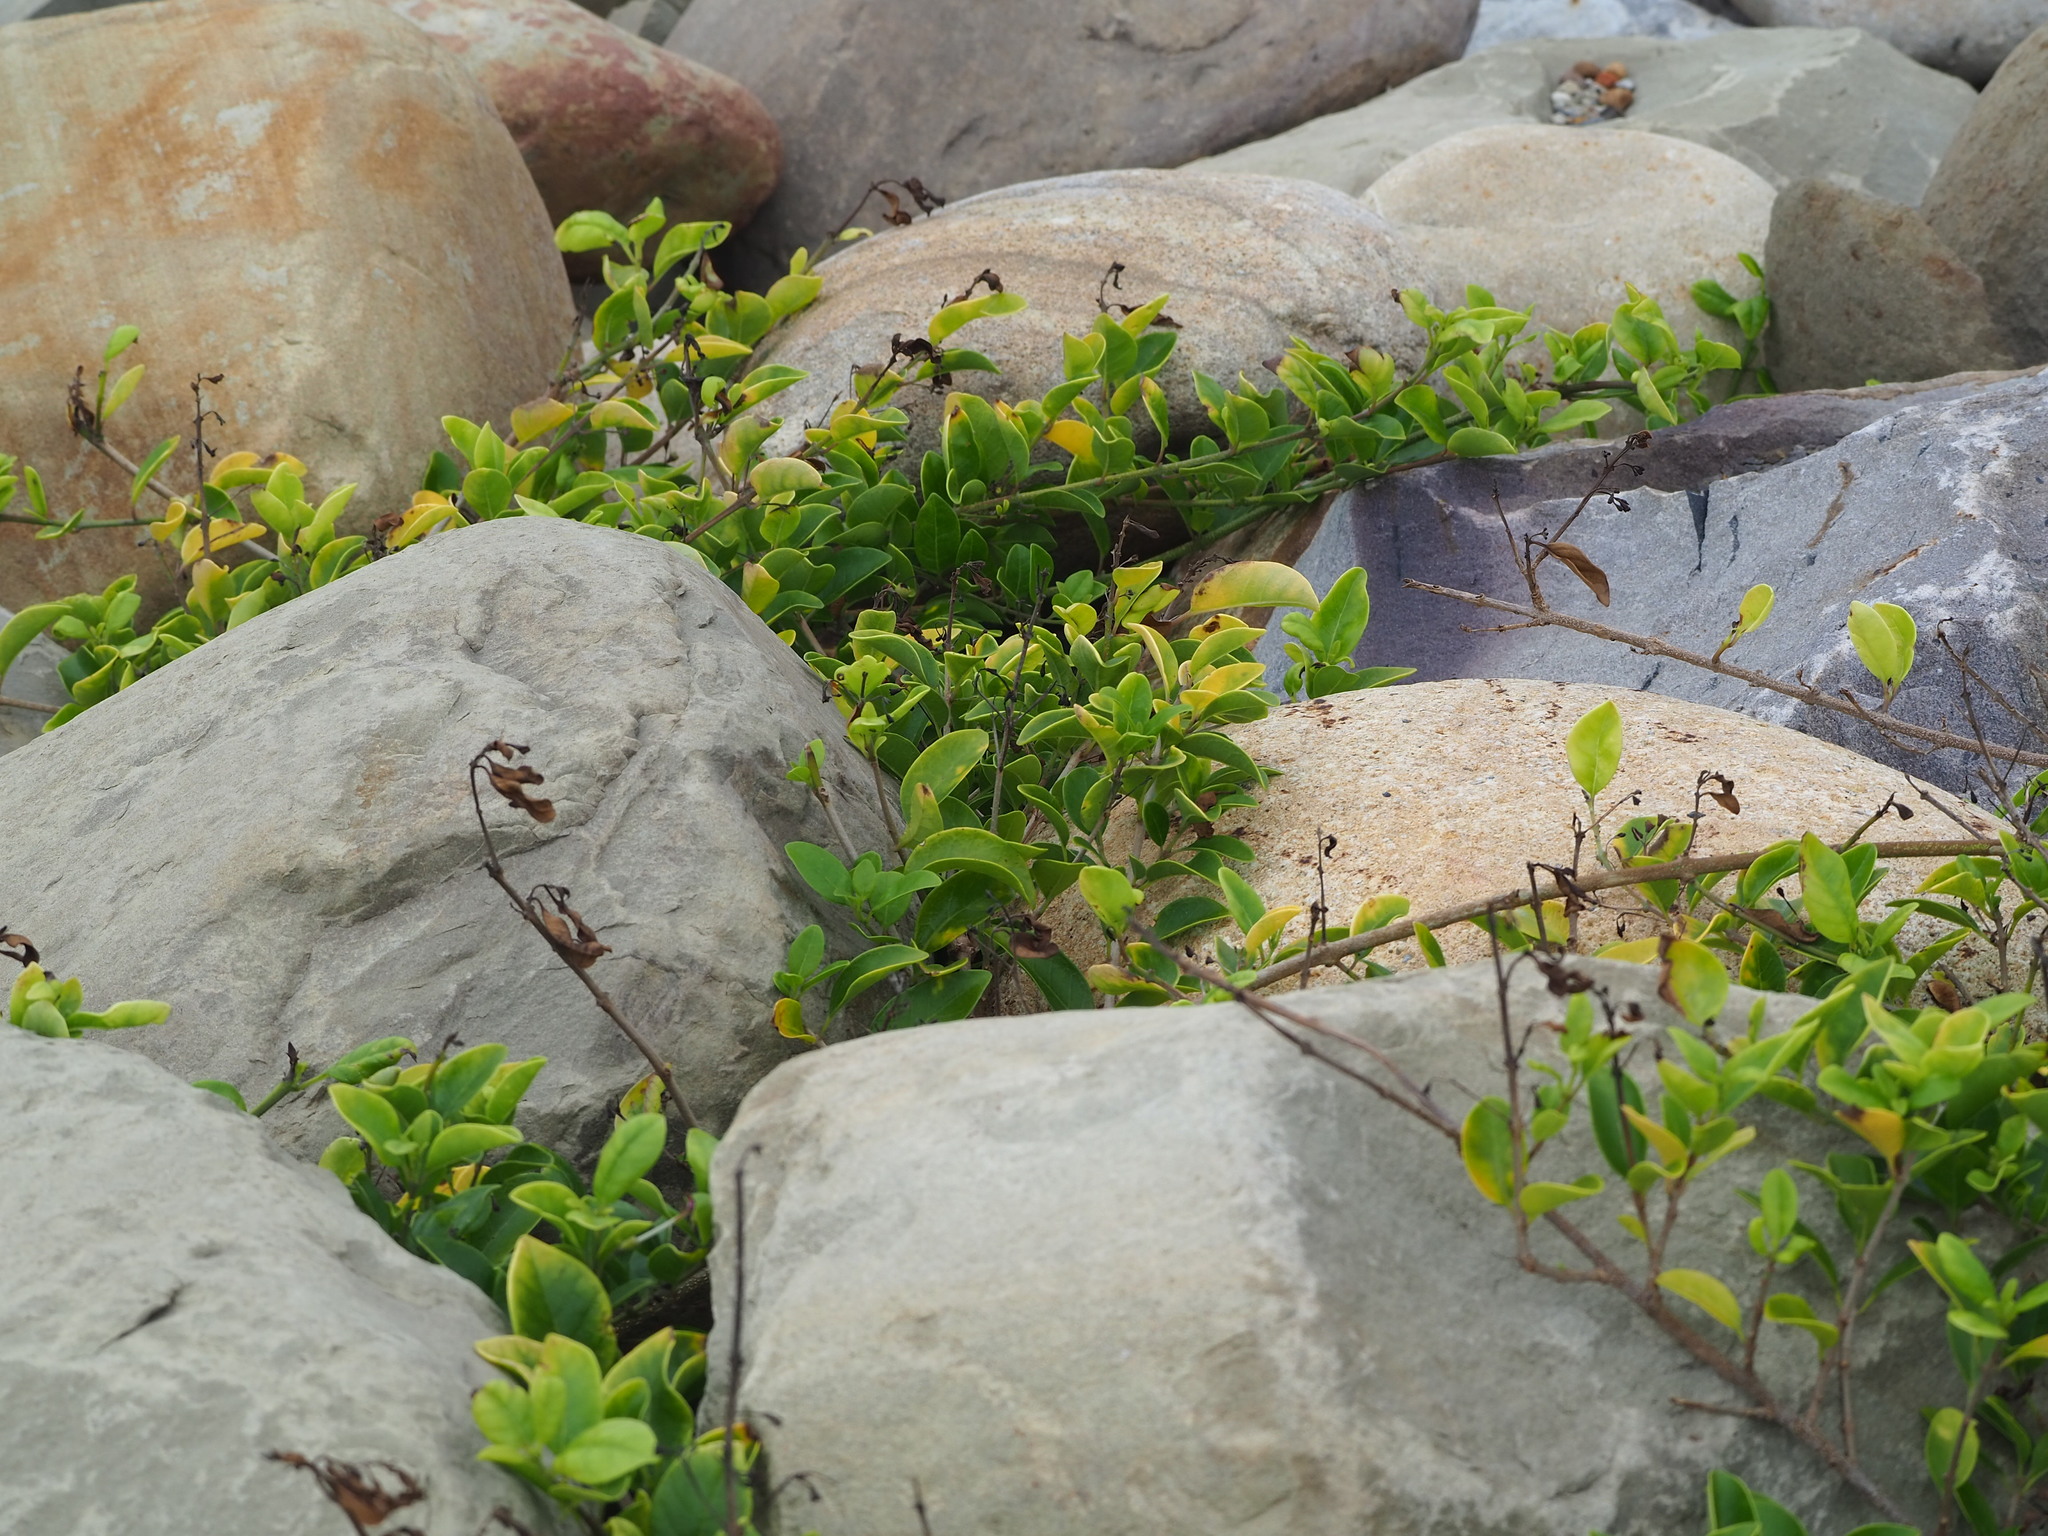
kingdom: Plantae
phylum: Tracheophyta
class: Magnoliopsida
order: Lamiales
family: Lamiaceae
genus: Volkameria
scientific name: Volkameria inermis
